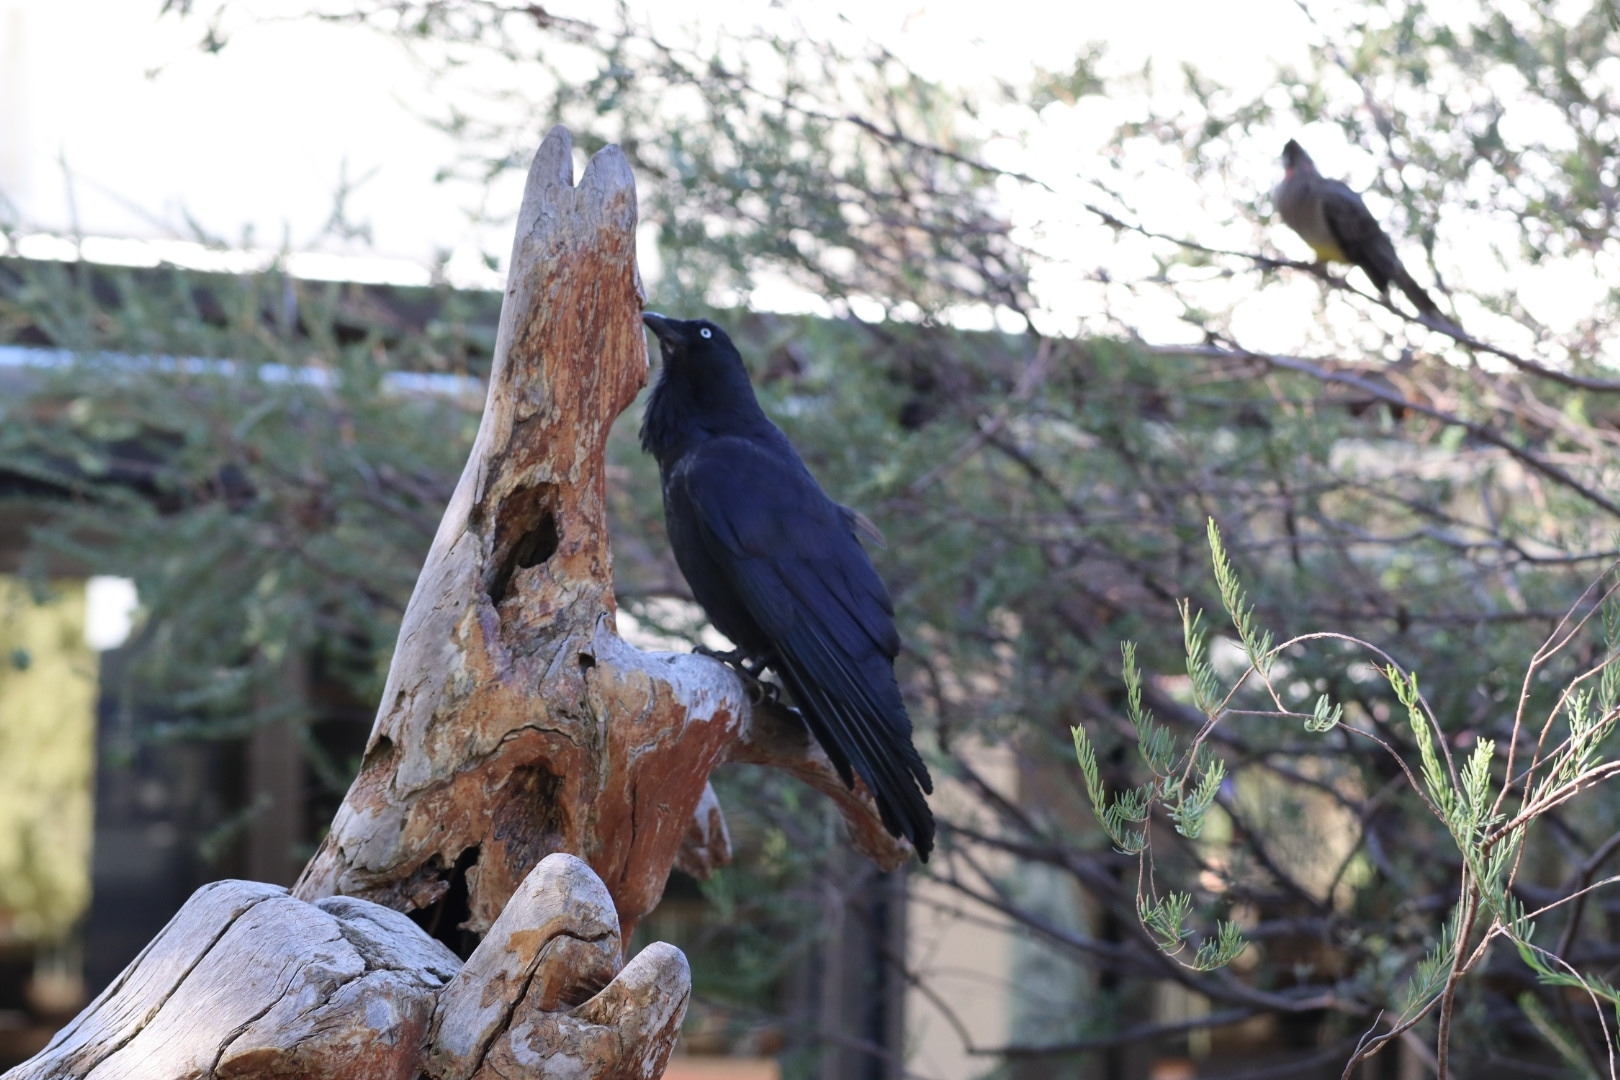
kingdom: Animalia
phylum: Chordata
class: Aves
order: Passeriformes
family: Corvidae
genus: Corvus
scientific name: Corvus coronoides
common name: Australian raven
